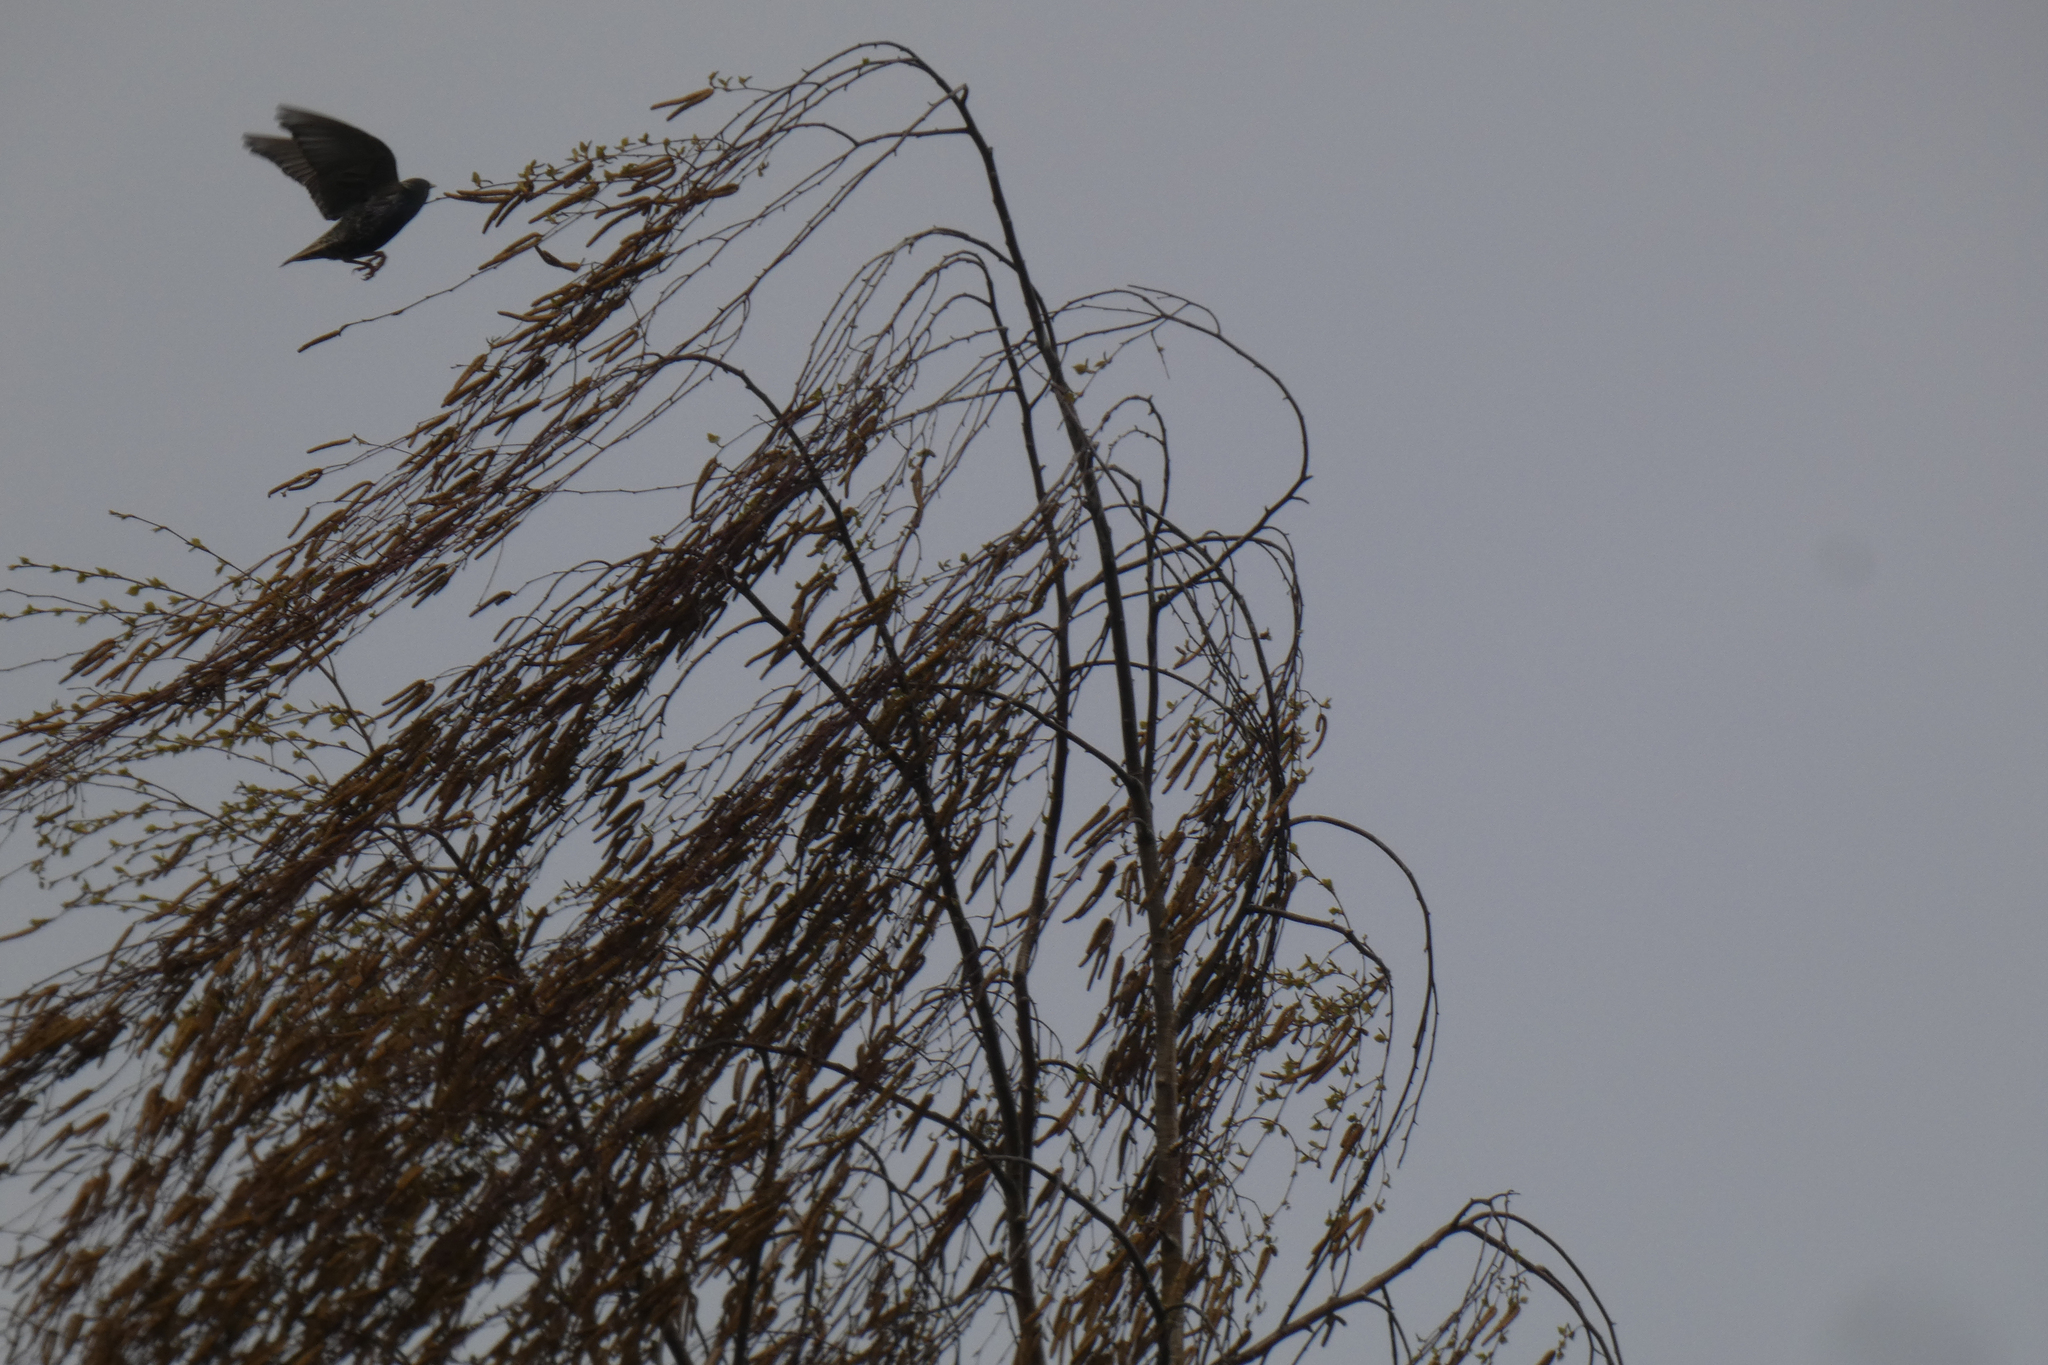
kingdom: Animalia
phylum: Chordata
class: Aves
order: Passeriformes
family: Sturnidae
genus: Sturnus
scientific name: Sturnus vulgaris
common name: Common starling
